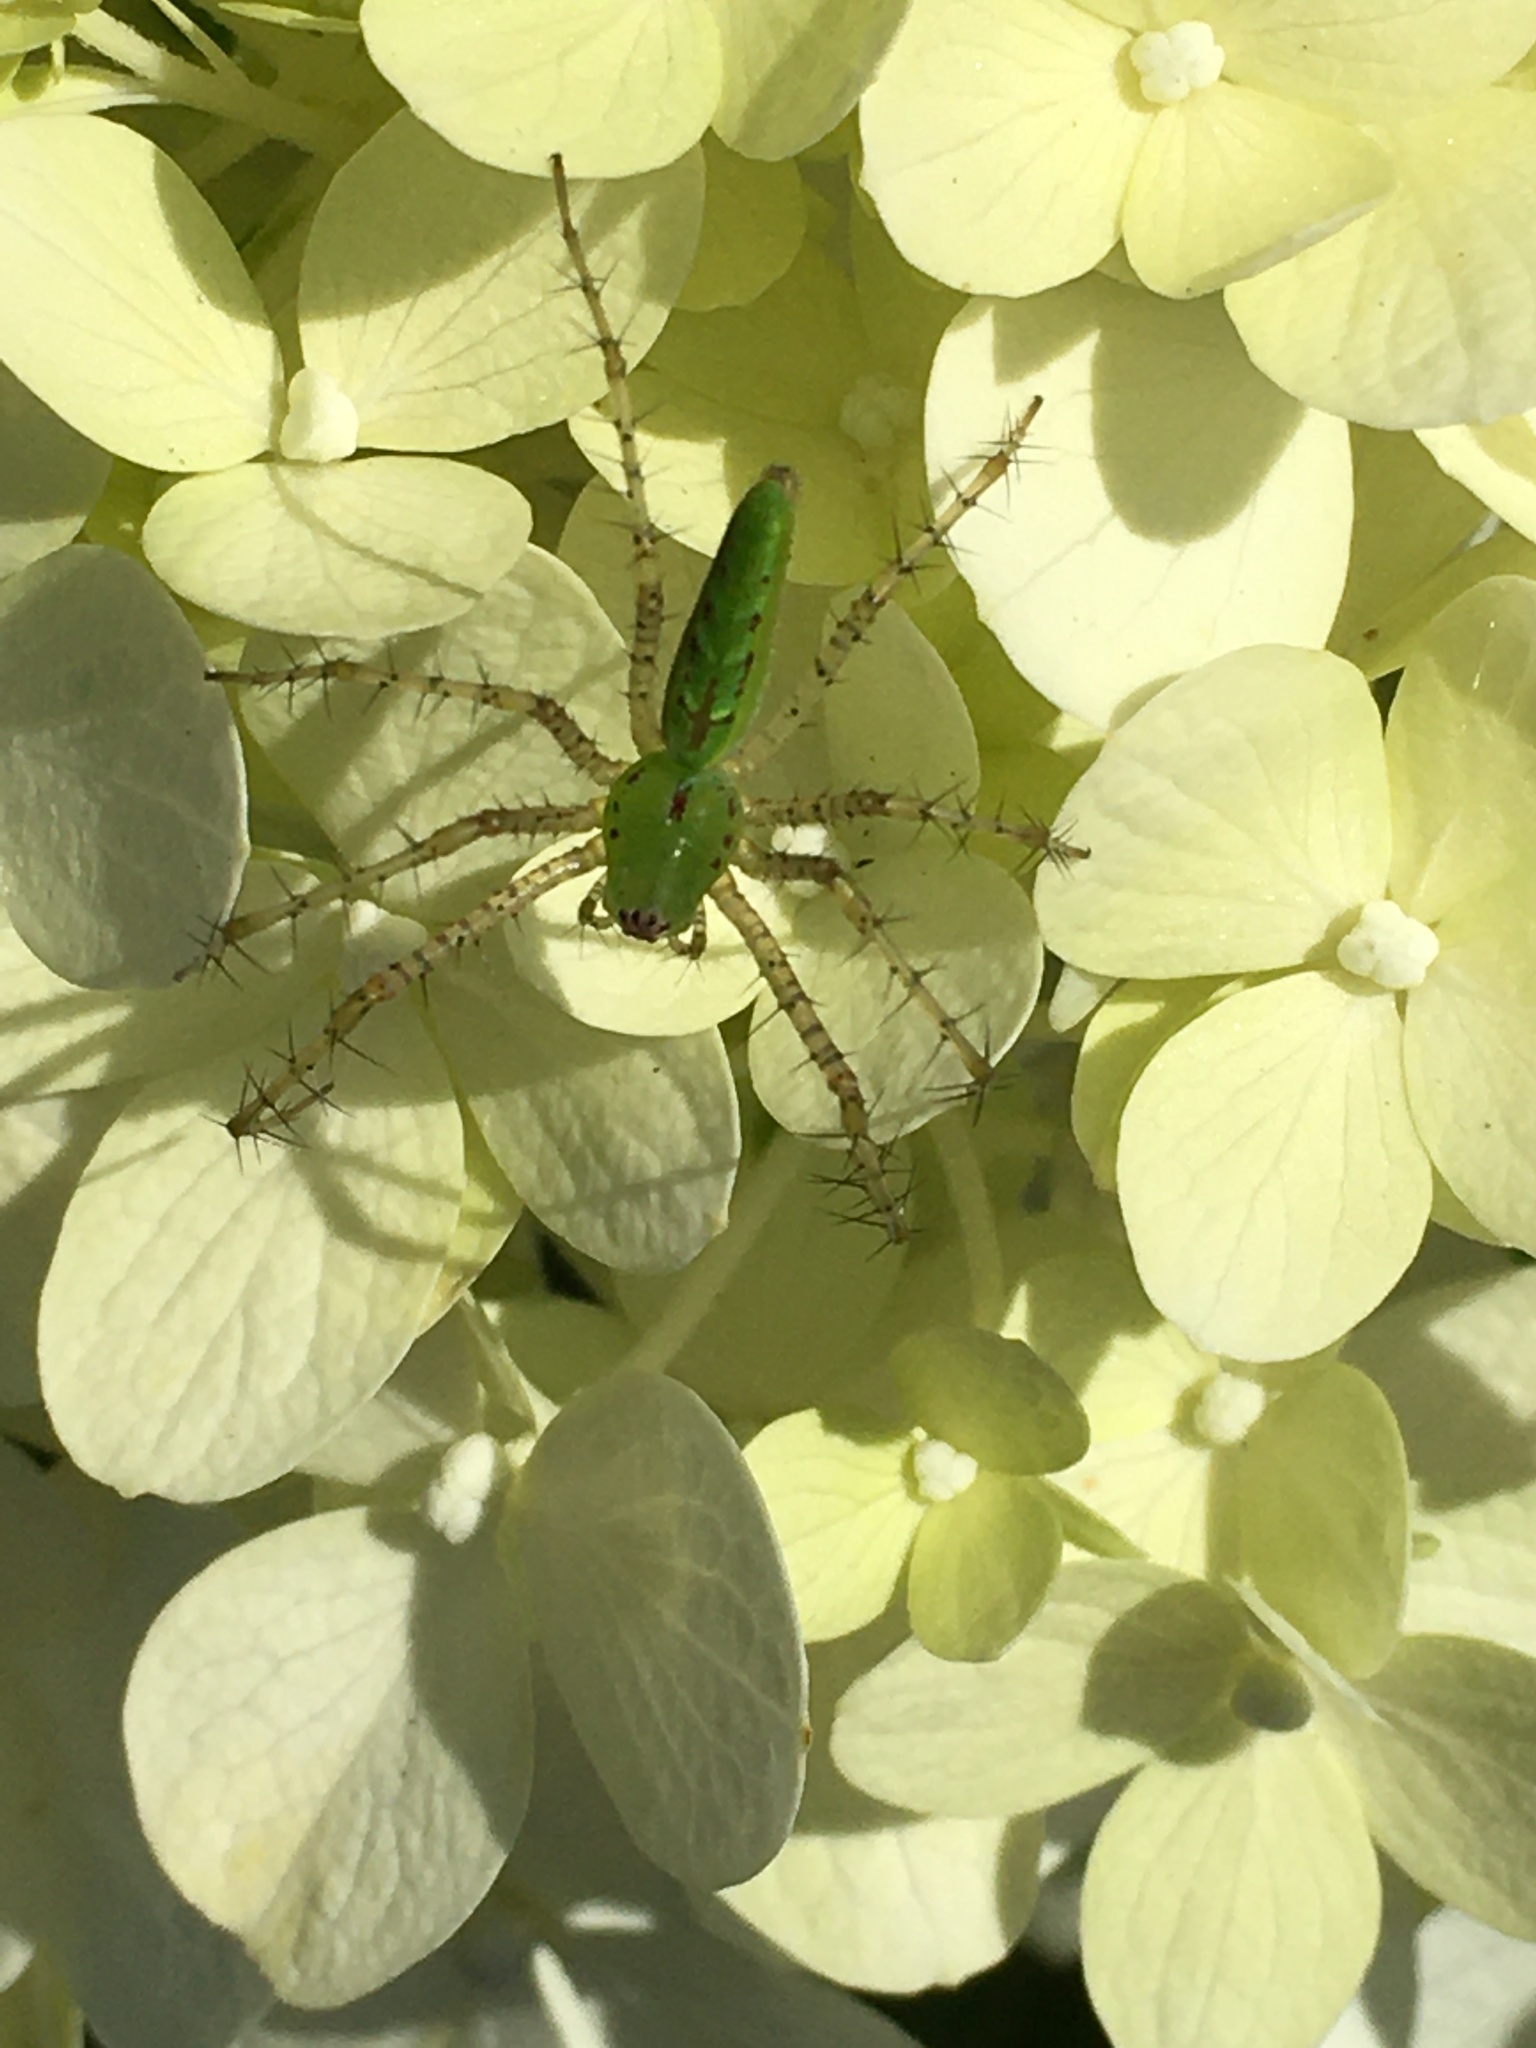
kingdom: Animalia
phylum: Arthropoda
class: Arachnida
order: Araneae
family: Oxyopidae
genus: Peucetia
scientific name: Peucetia viridans
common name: Lynx spiders
